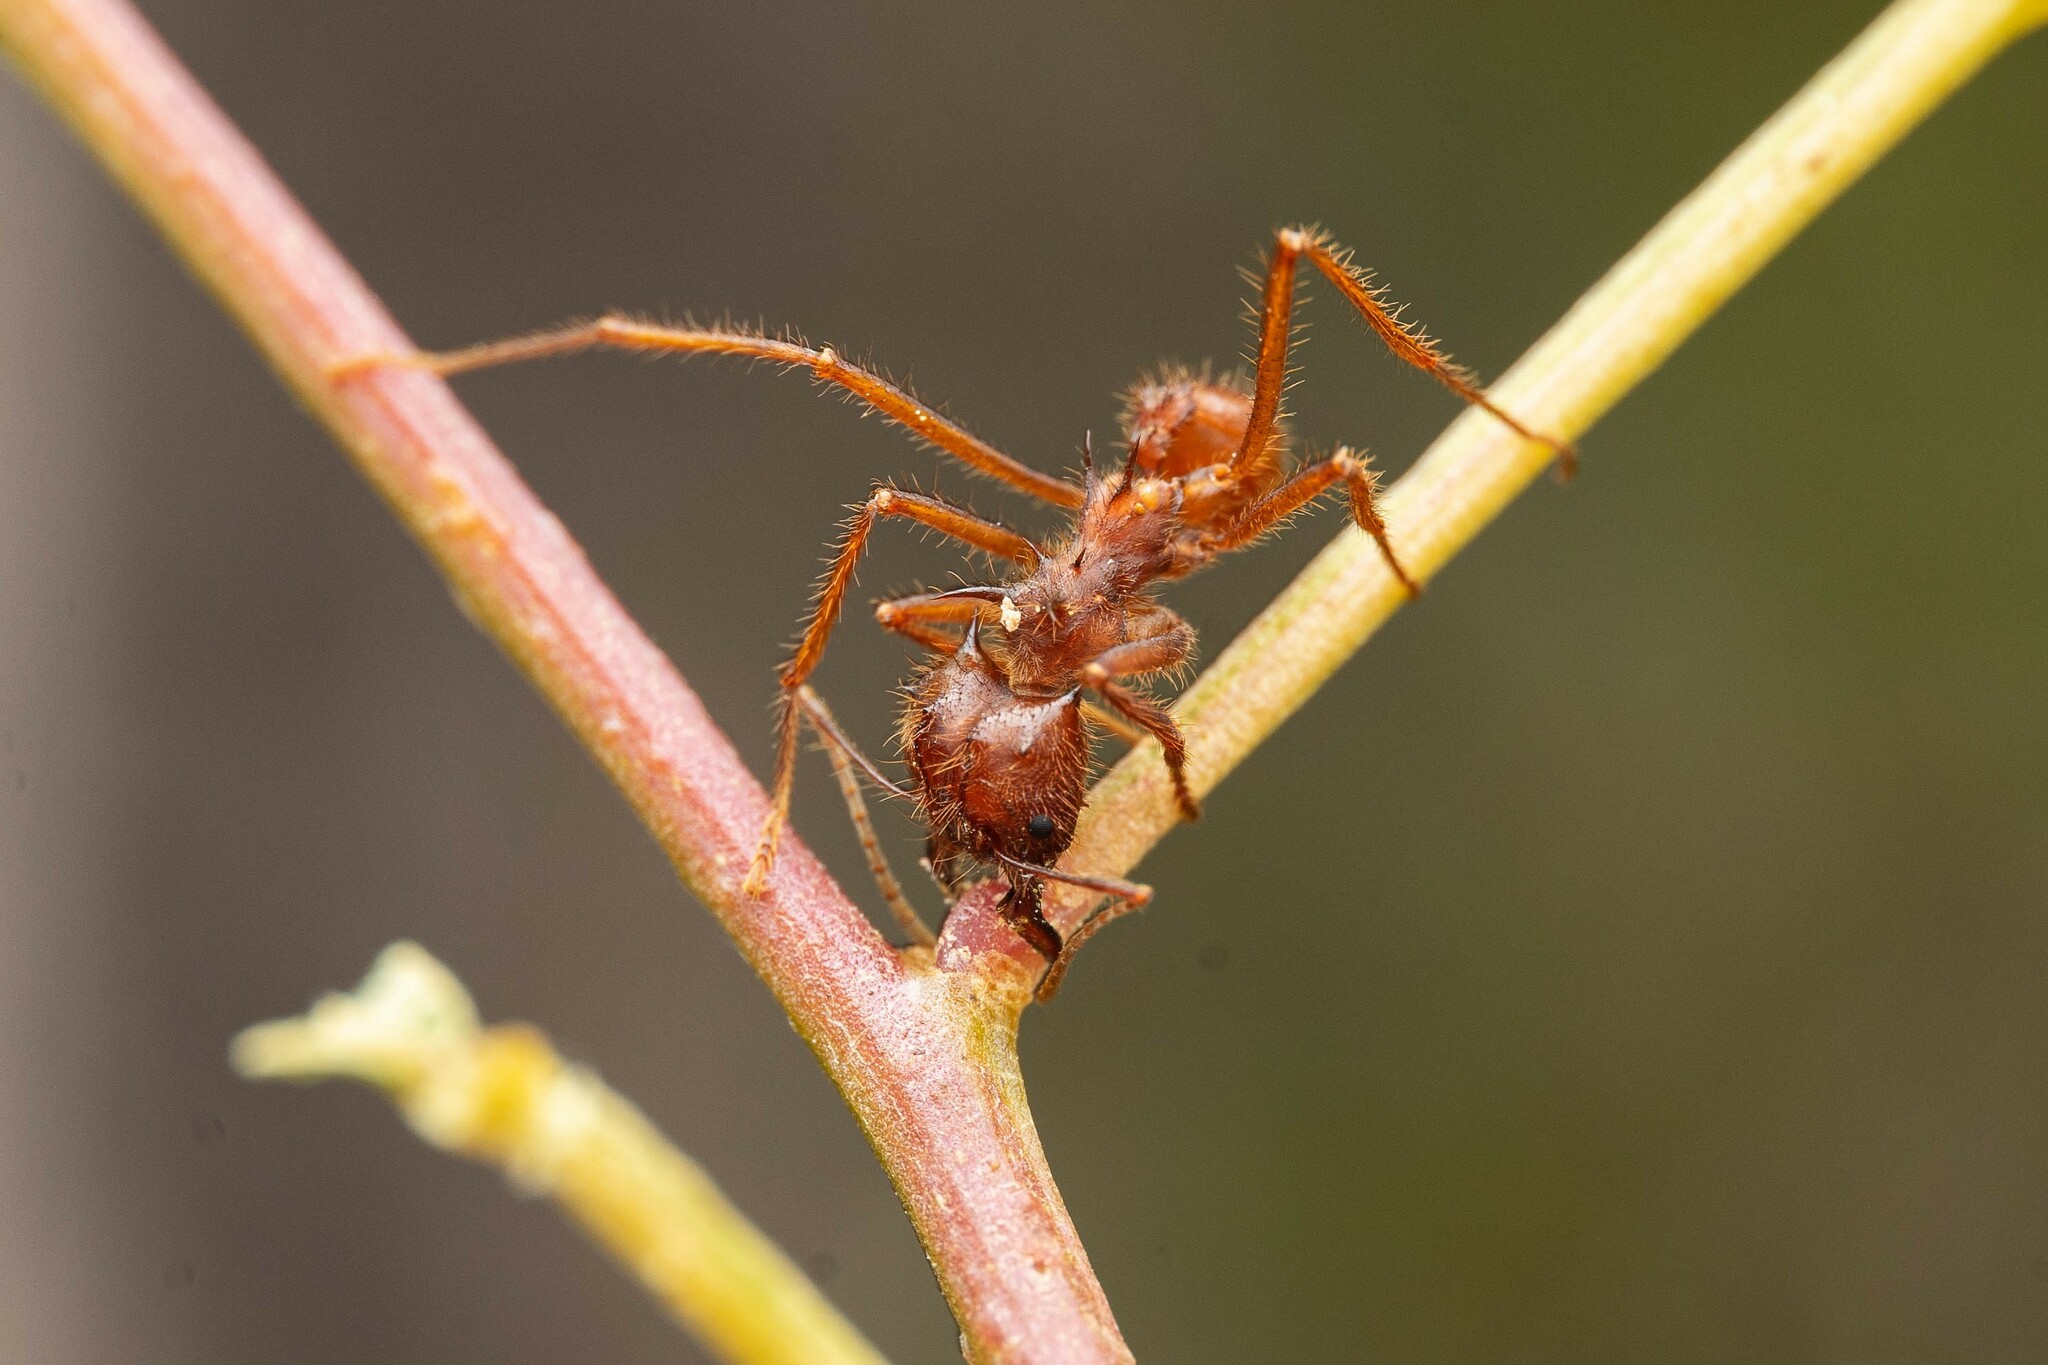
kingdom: Animalia
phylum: Arthropoda
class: Insecta
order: Hymenoptera
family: Formicidae
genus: Atta
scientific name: Atta mexicana
